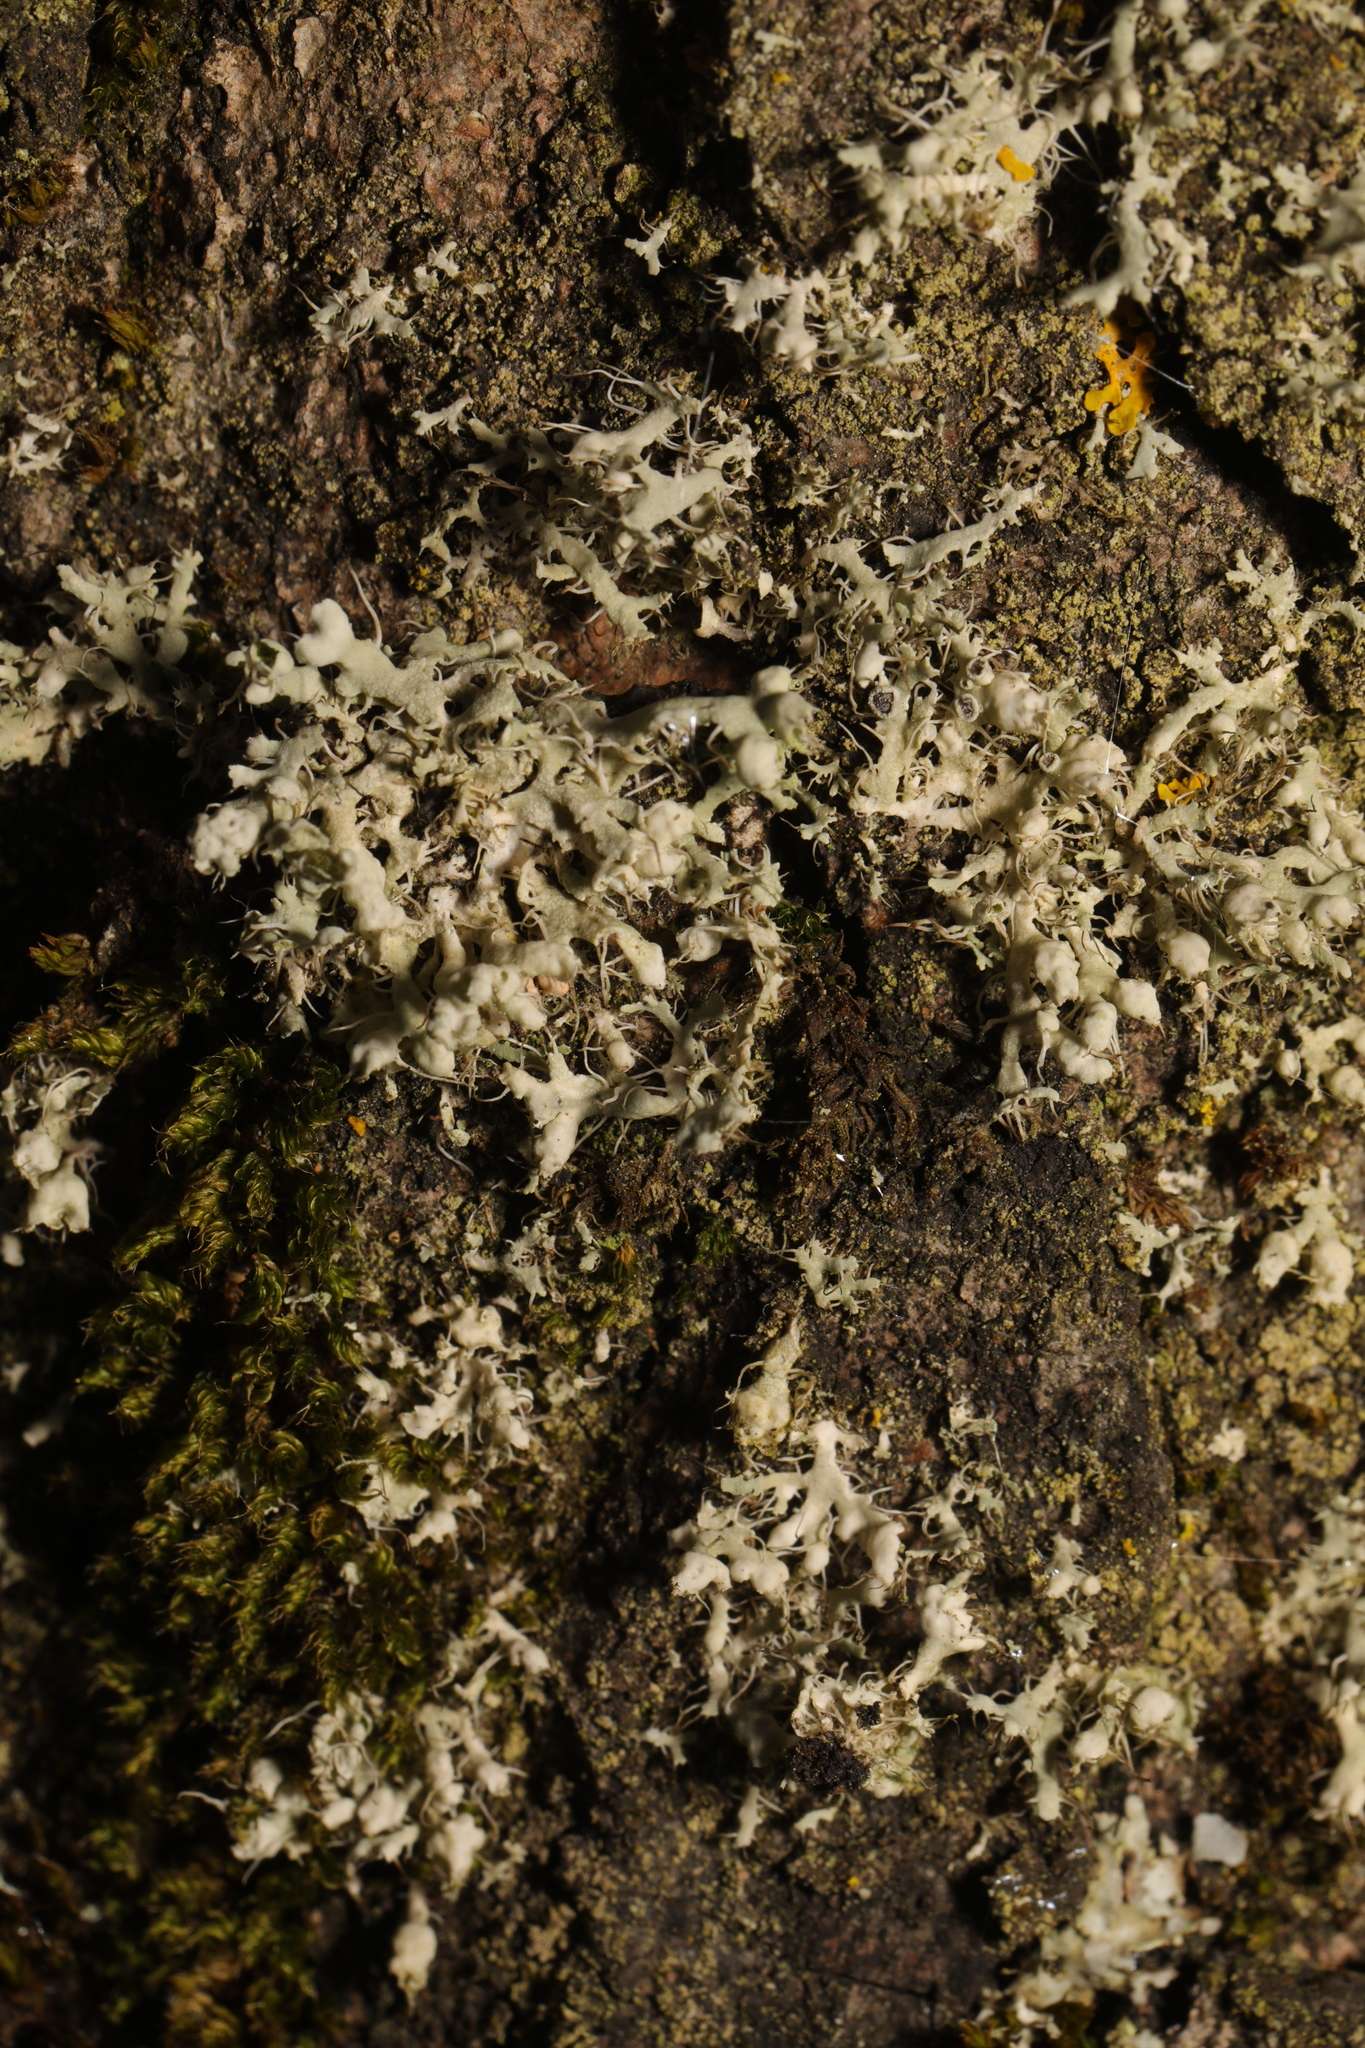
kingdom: Fungi
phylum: Ascomycota
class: Lecanoromycetes
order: Caliciales
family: Physciaceae
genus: Physcia
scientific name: Physcia adscendens
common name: Hooded rosette lichen
